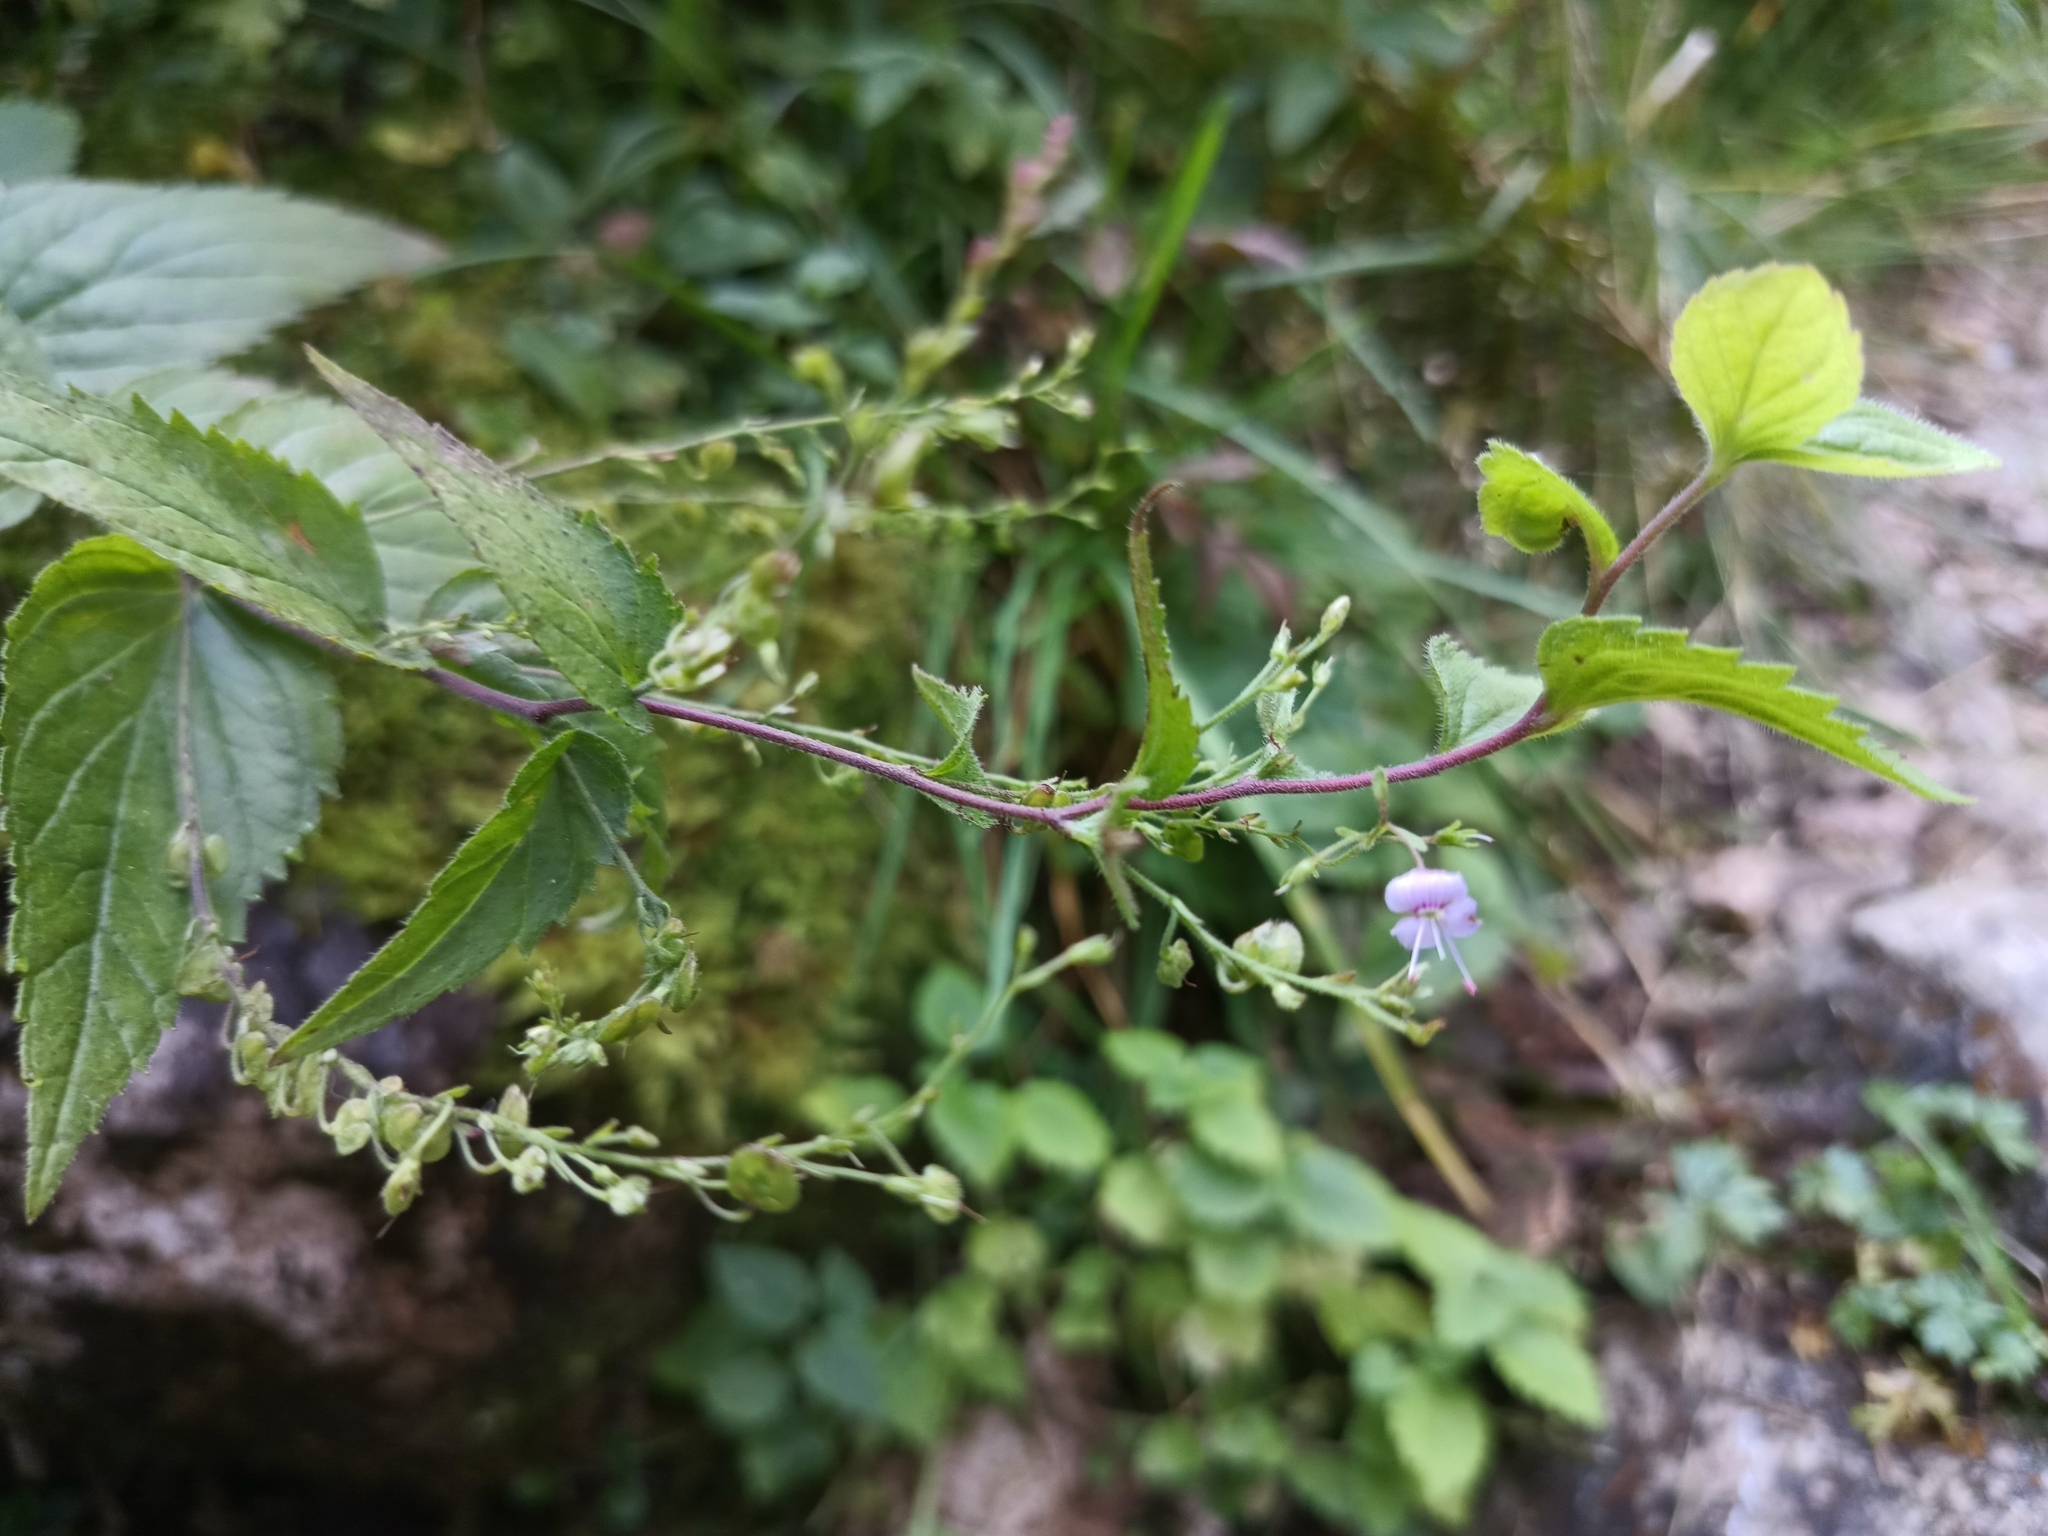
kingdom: Plantae
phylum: Tracheophyta
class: Magnoliopsida
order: Lamiales
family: Plantaginaceae
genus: Veronica
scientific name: Veronica urticifolia
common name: Nettle-leaf speedwell
